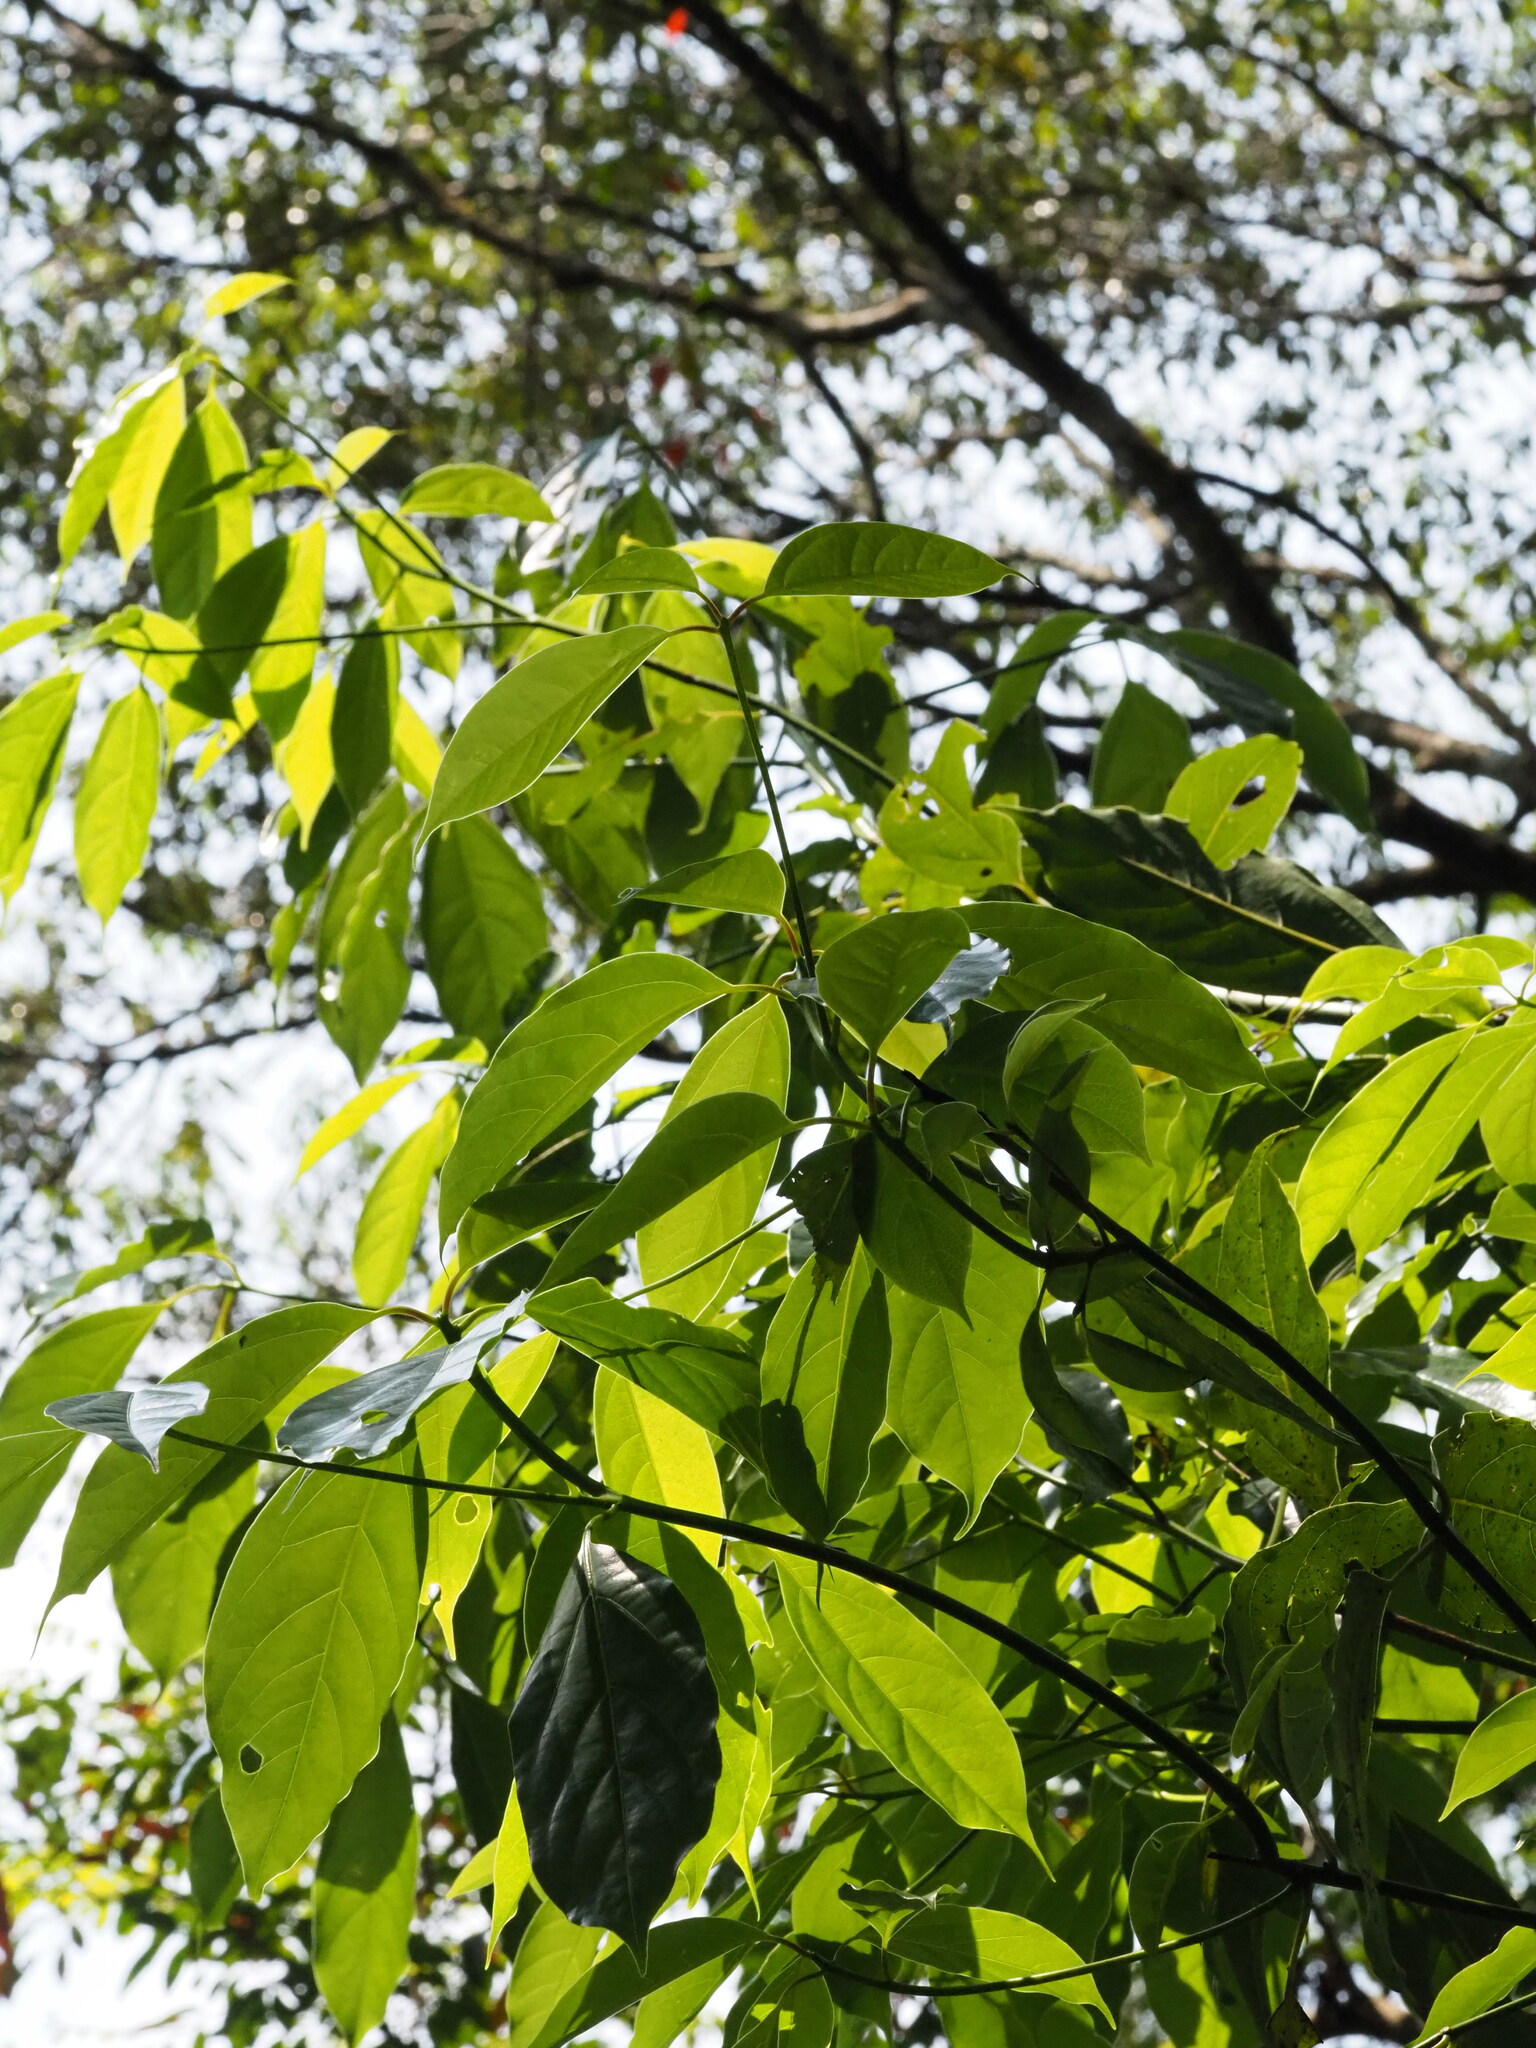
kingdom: Plantae
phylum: Tracheophyta
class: Magnoliopsida
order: Laurales
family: Lauraceae
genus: Cinnamomum
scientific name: Cinnamomum micranthum
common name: Chinese-sassafras
